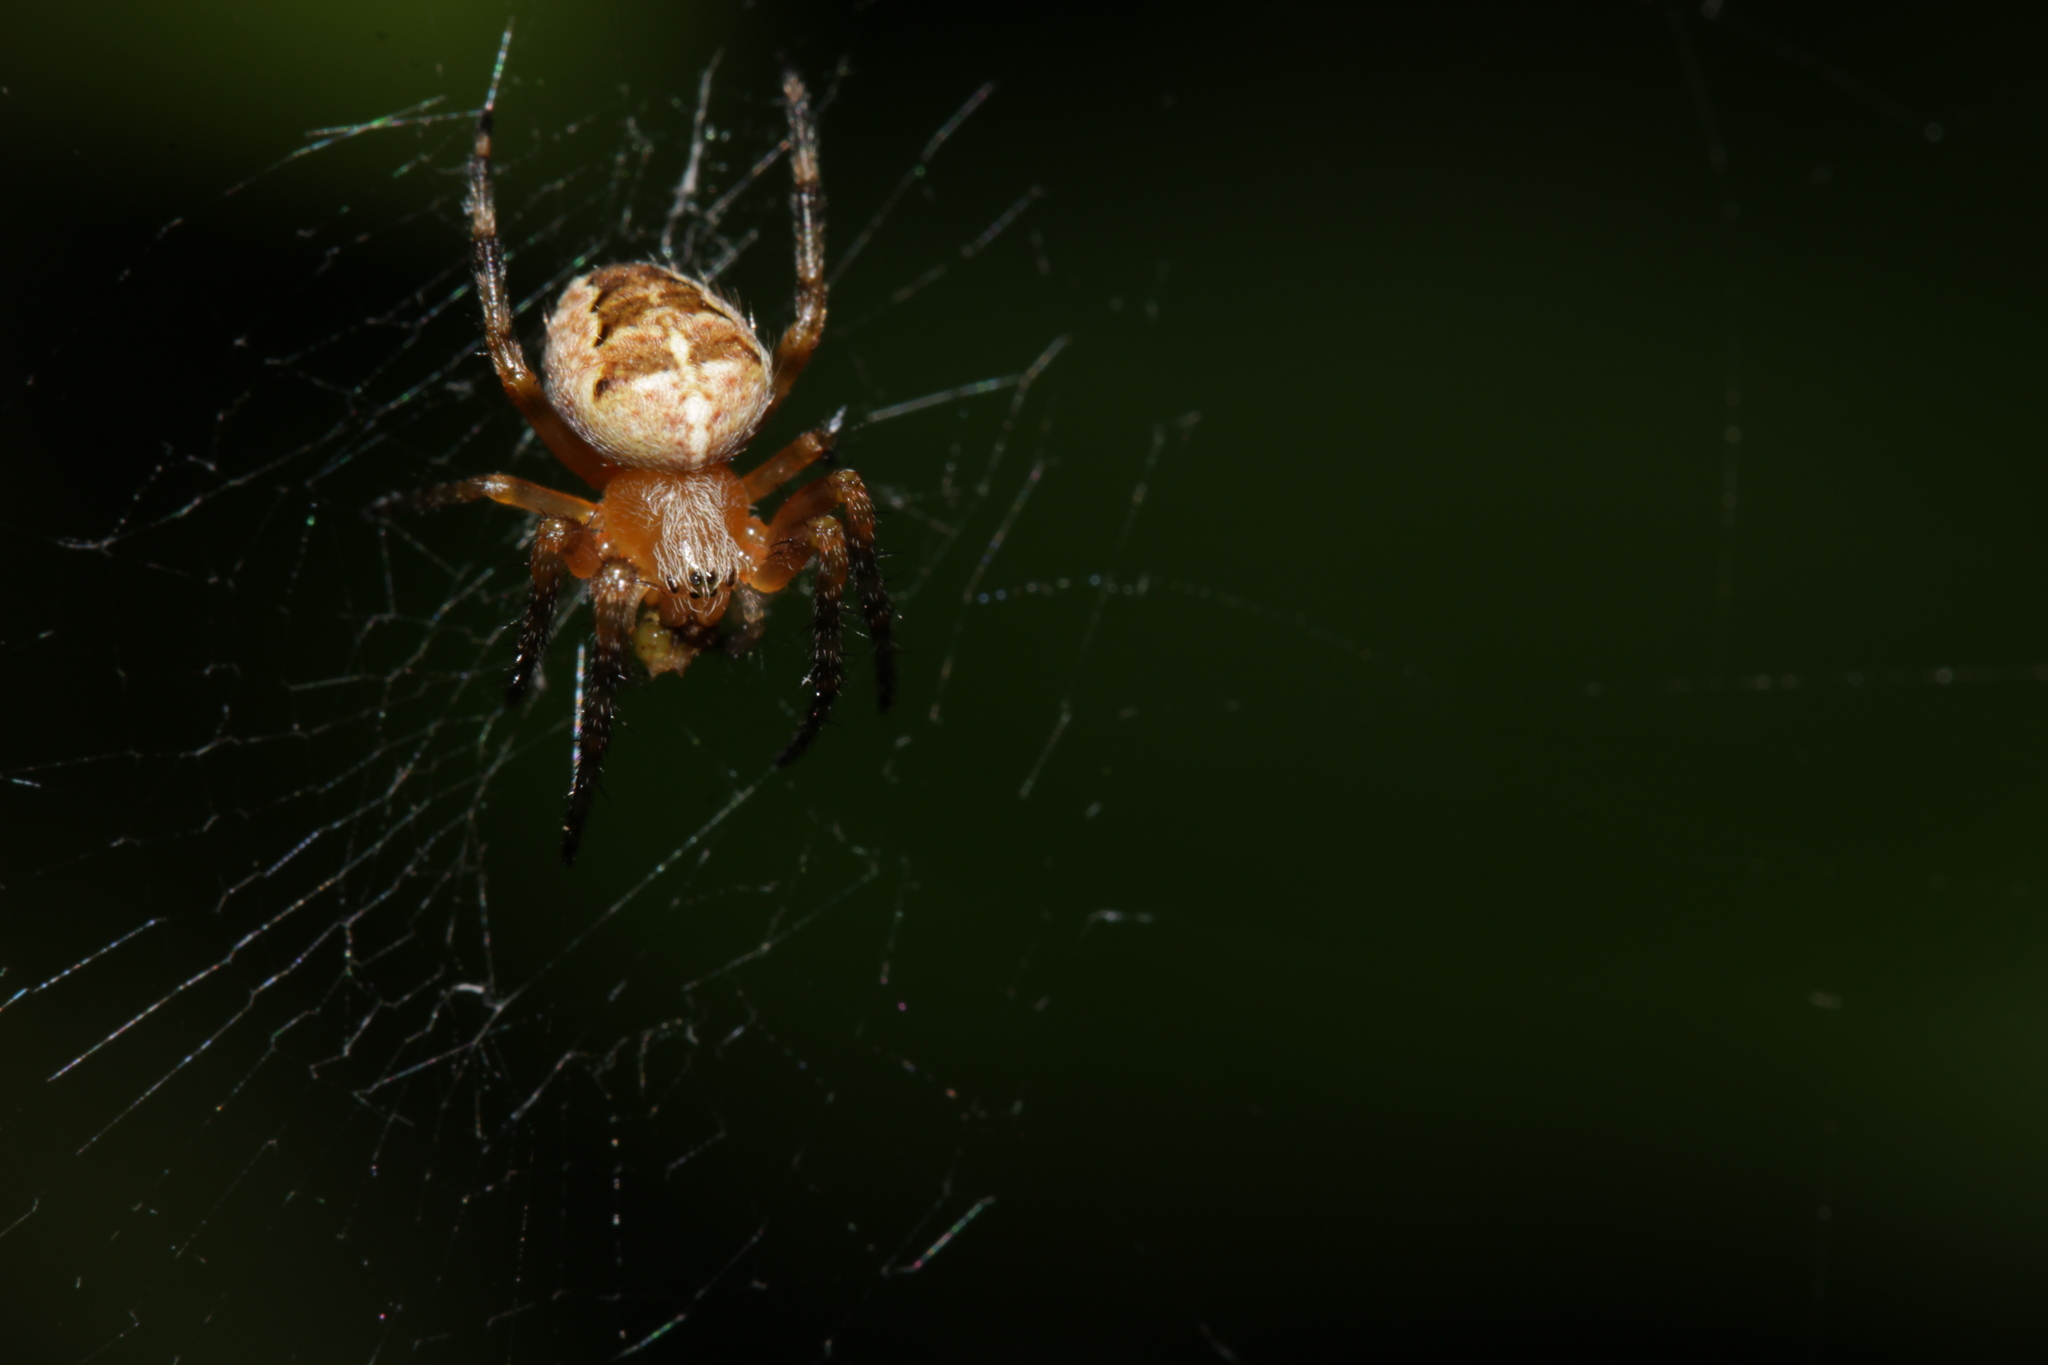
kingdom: Animalia
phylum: Arthropoda
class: Arachnida
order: Araneae
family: Araneidae
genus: Araneus
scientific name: Araneus diadematus
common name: Cross orbweaver
